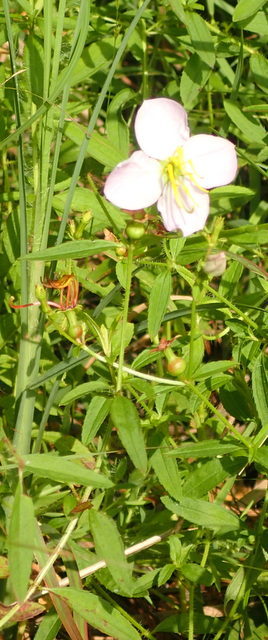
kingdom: Plantae
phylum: Tracheophyta
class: Magnoliopsida
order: Myrtales
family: Melastomataceae
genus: Rhexia
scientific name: Rhexia mariana
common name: Dull meadow-pitcher
